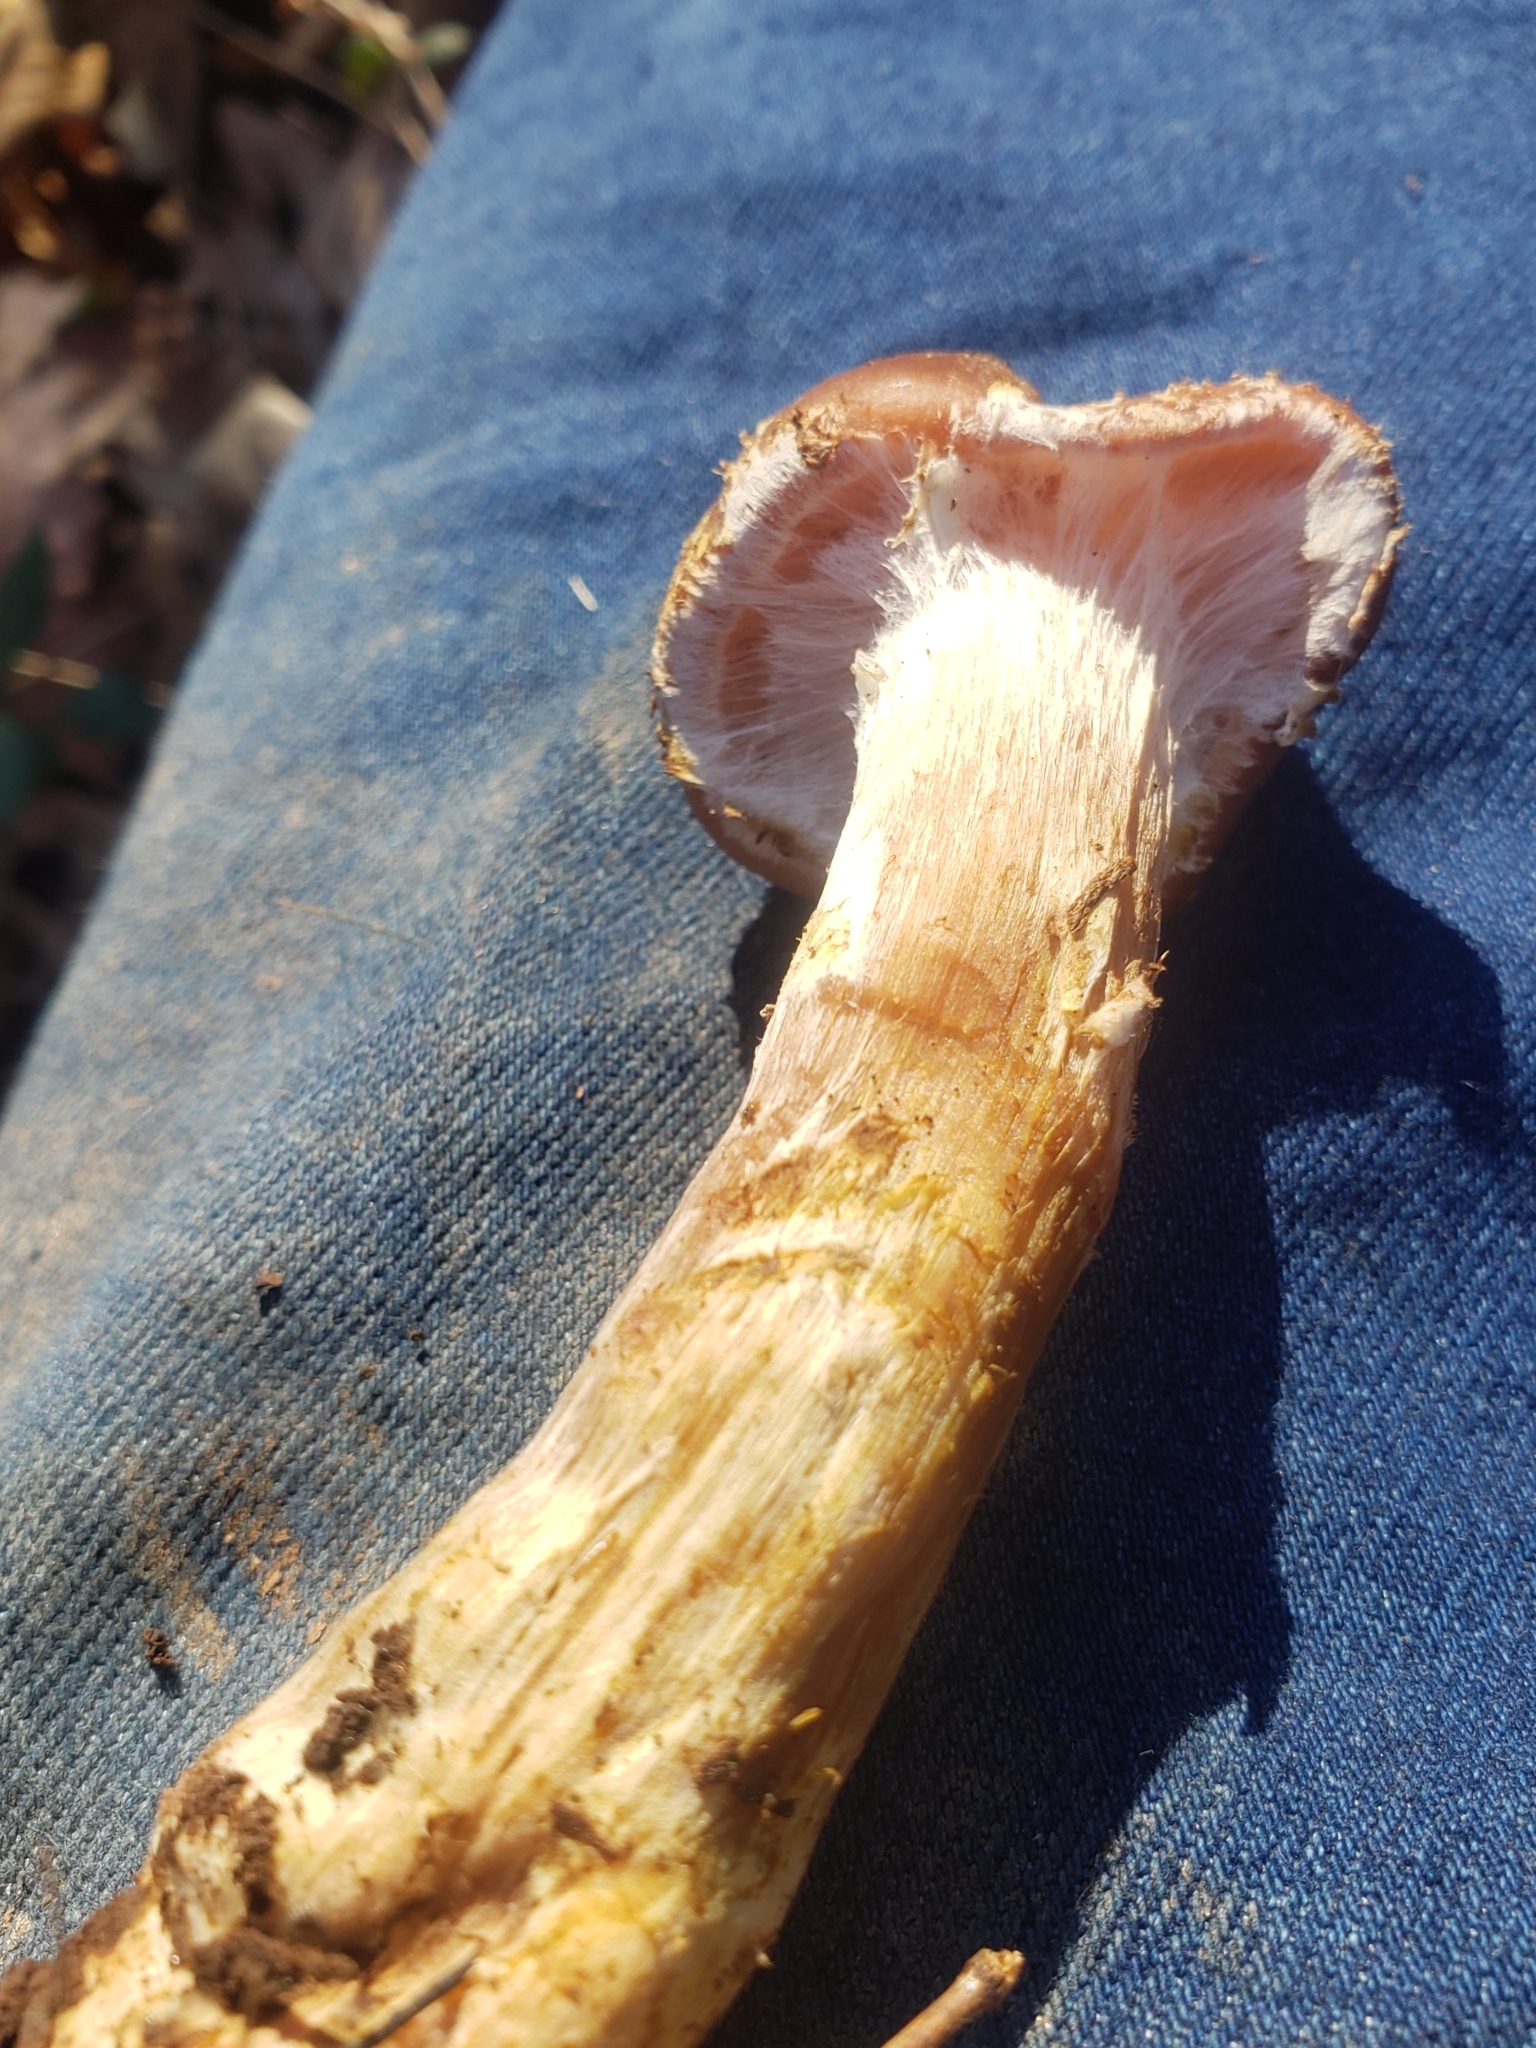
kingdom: Fungi
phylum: Basidiomycota
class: Agaricomycetes
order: Agaricales
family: Physalacriaceae
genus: Armillaria
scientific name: Armillaria gallica
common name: Bulbous honey fungus
